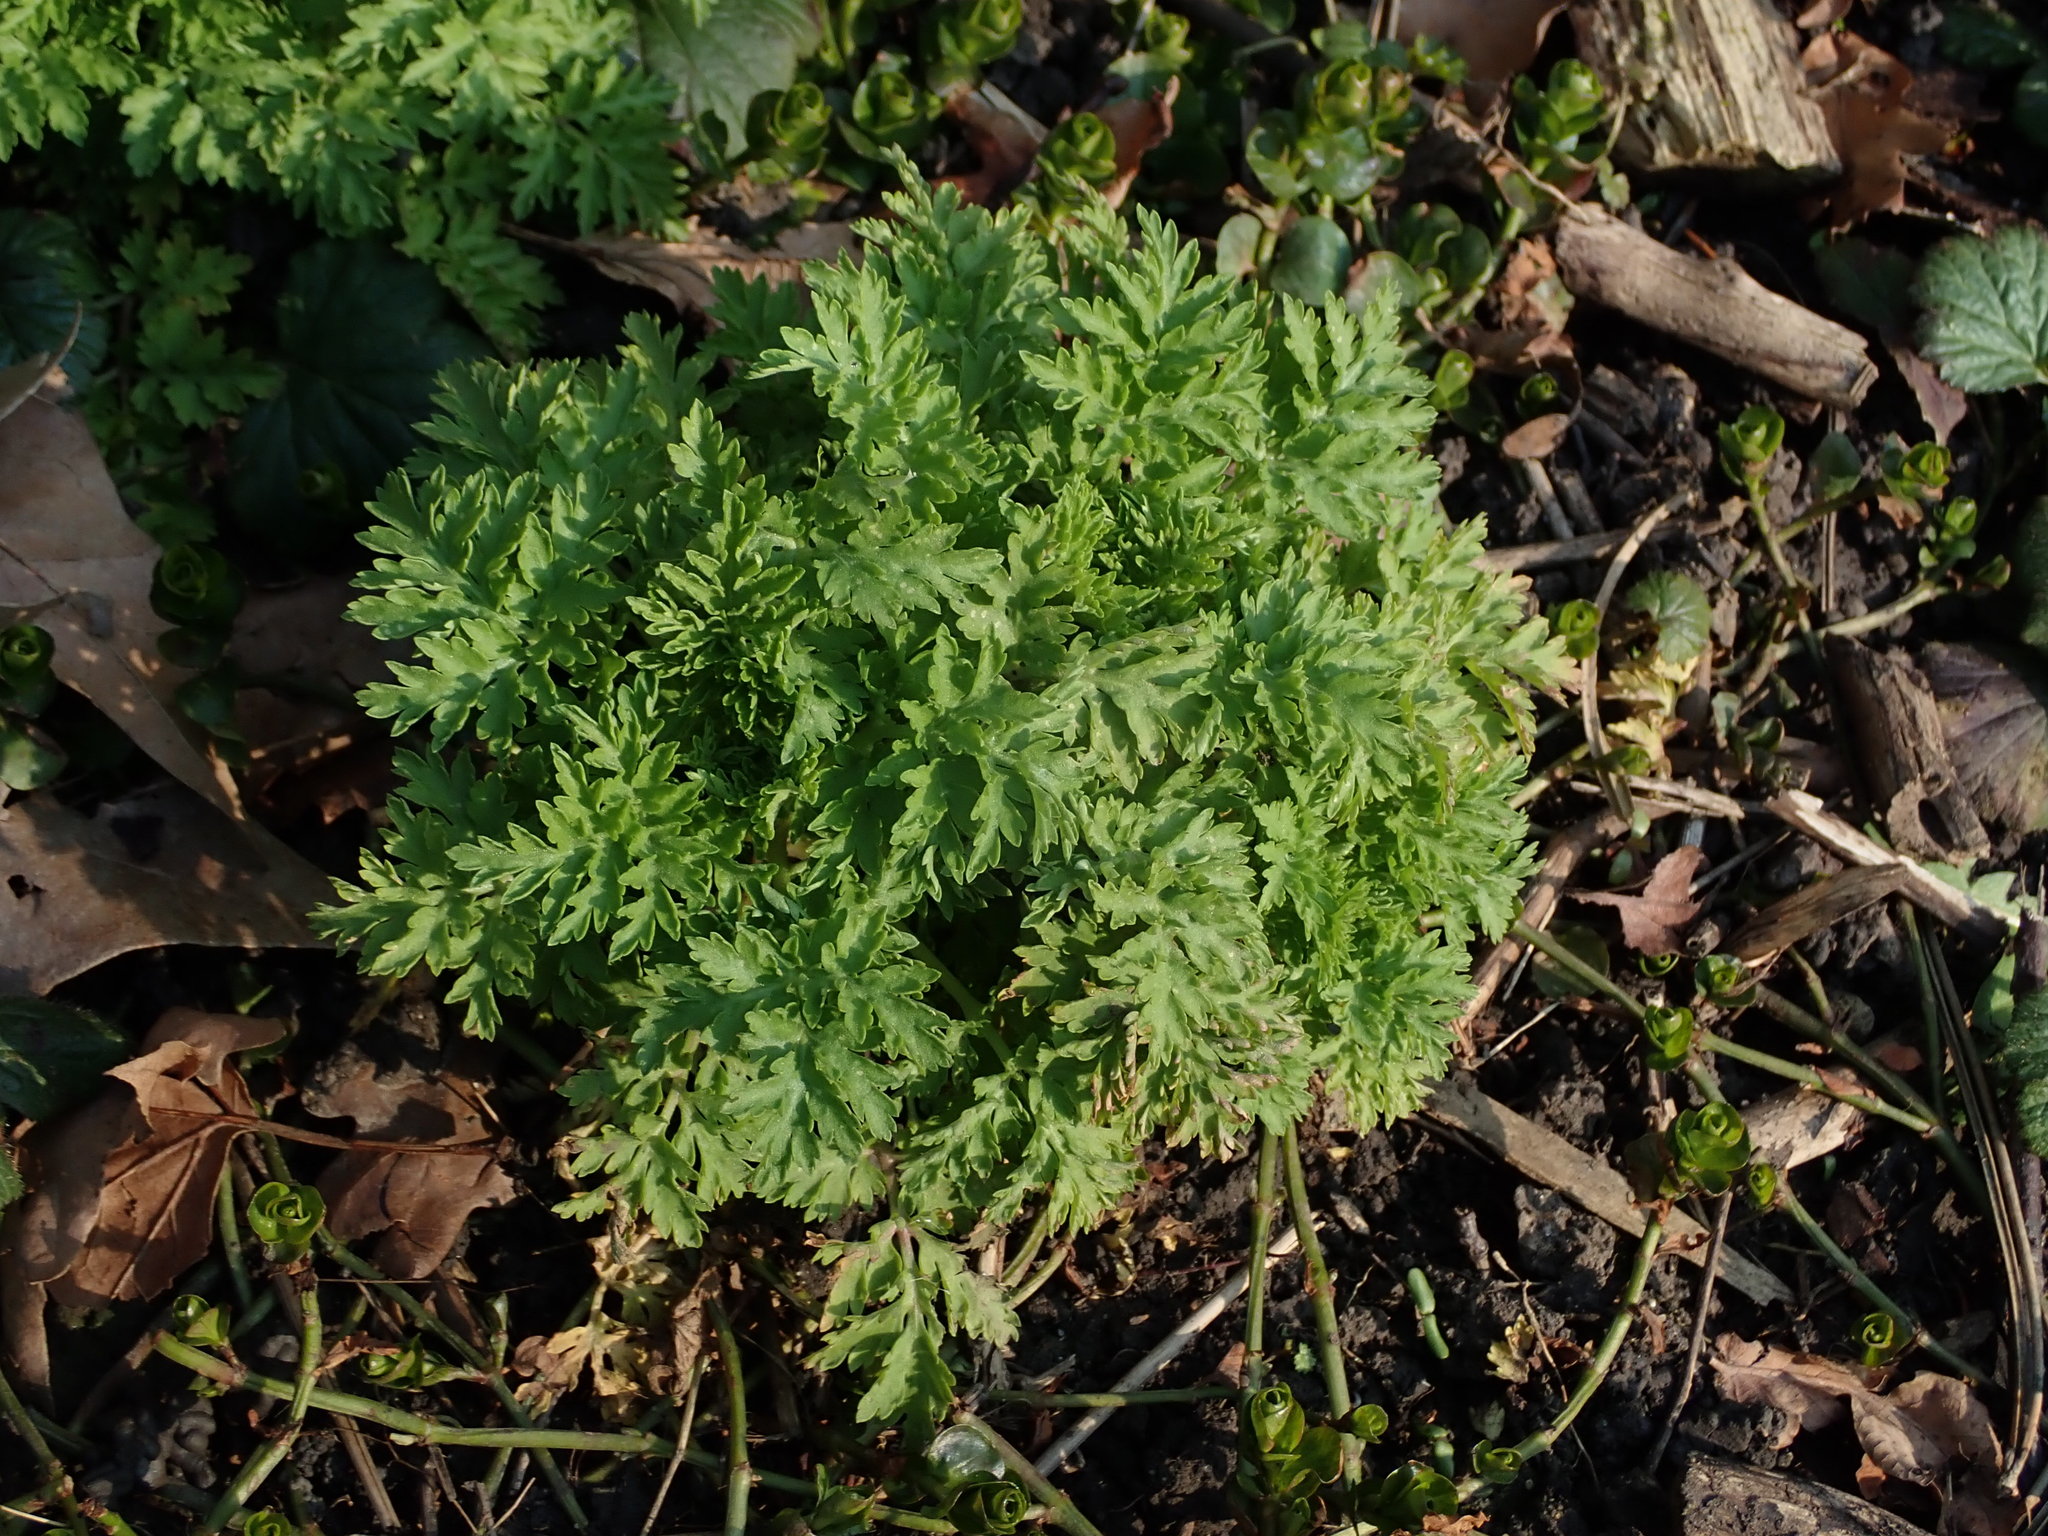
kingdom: Plantae
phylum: Tracheophyta
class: Magnoliopsida
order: Asterales
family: Asteraceae
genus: Tanacetum
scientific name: Tanacetum parthenium
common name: Feverfew
